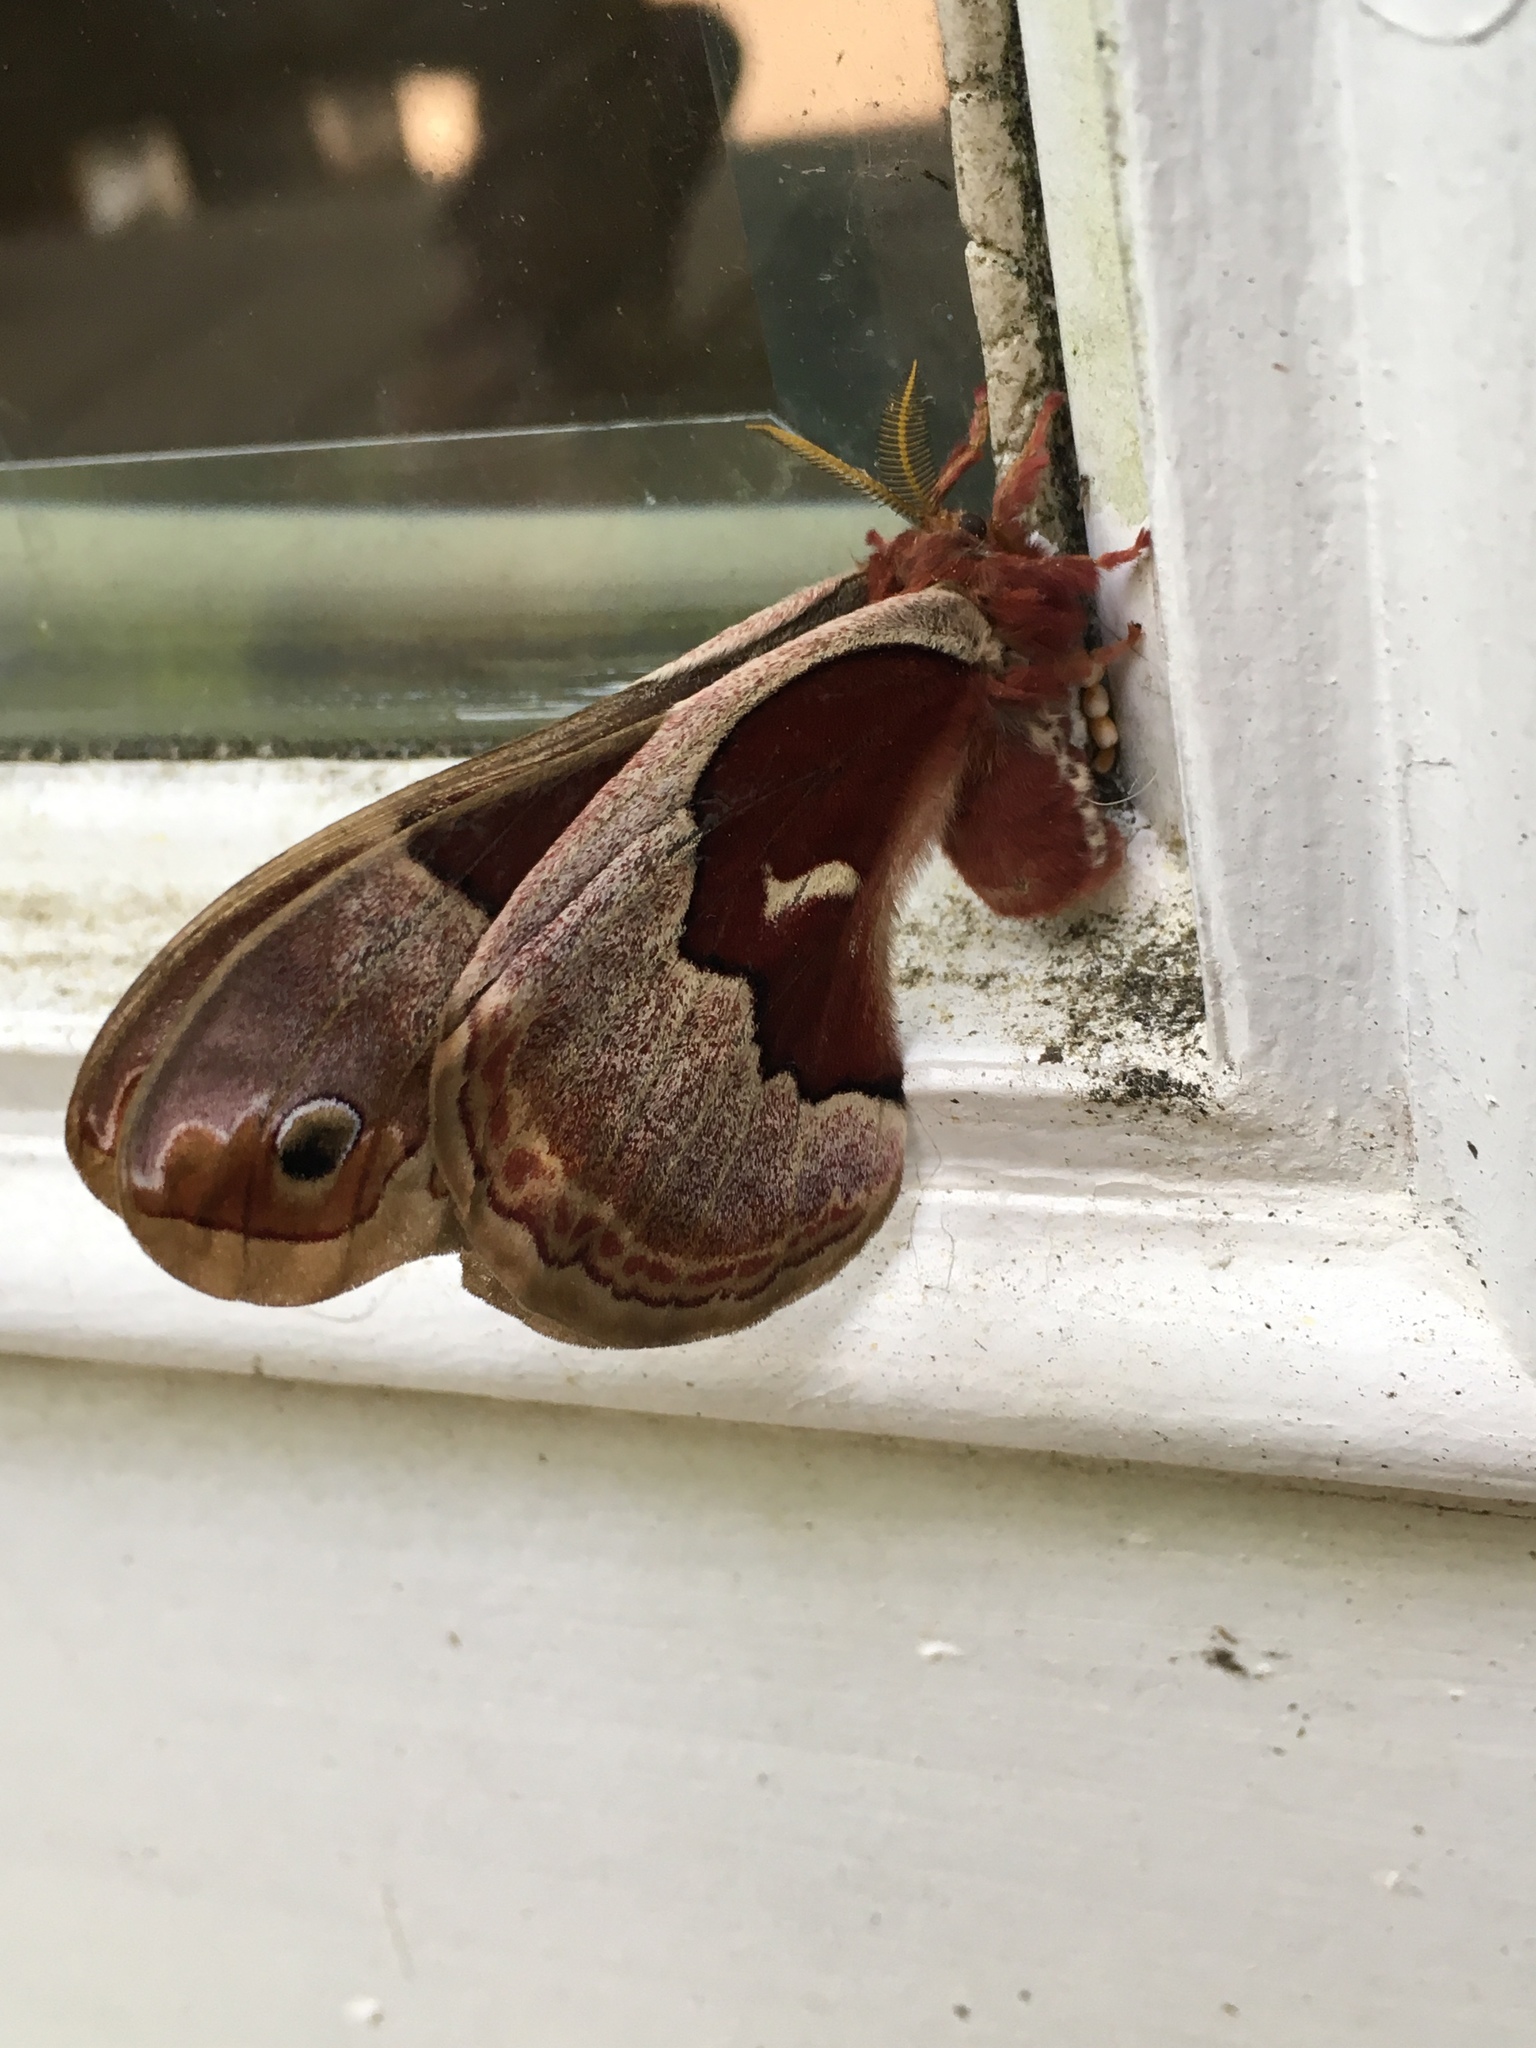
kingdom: Animalia
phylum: Arthropoda
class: Insecta
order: Lepidoptera
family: Saturniidae
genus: Callosamia
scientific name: Callosamia promethea
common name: Promethea silkmoth
